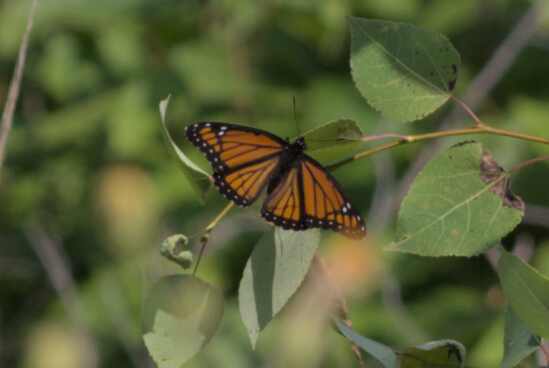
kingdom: Animalia
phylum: Arthropoda
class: Insecta
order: Lepidoptera
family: Nymphalidae
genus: Limenitis
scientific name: Limenitis archippus
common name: Viceroy
